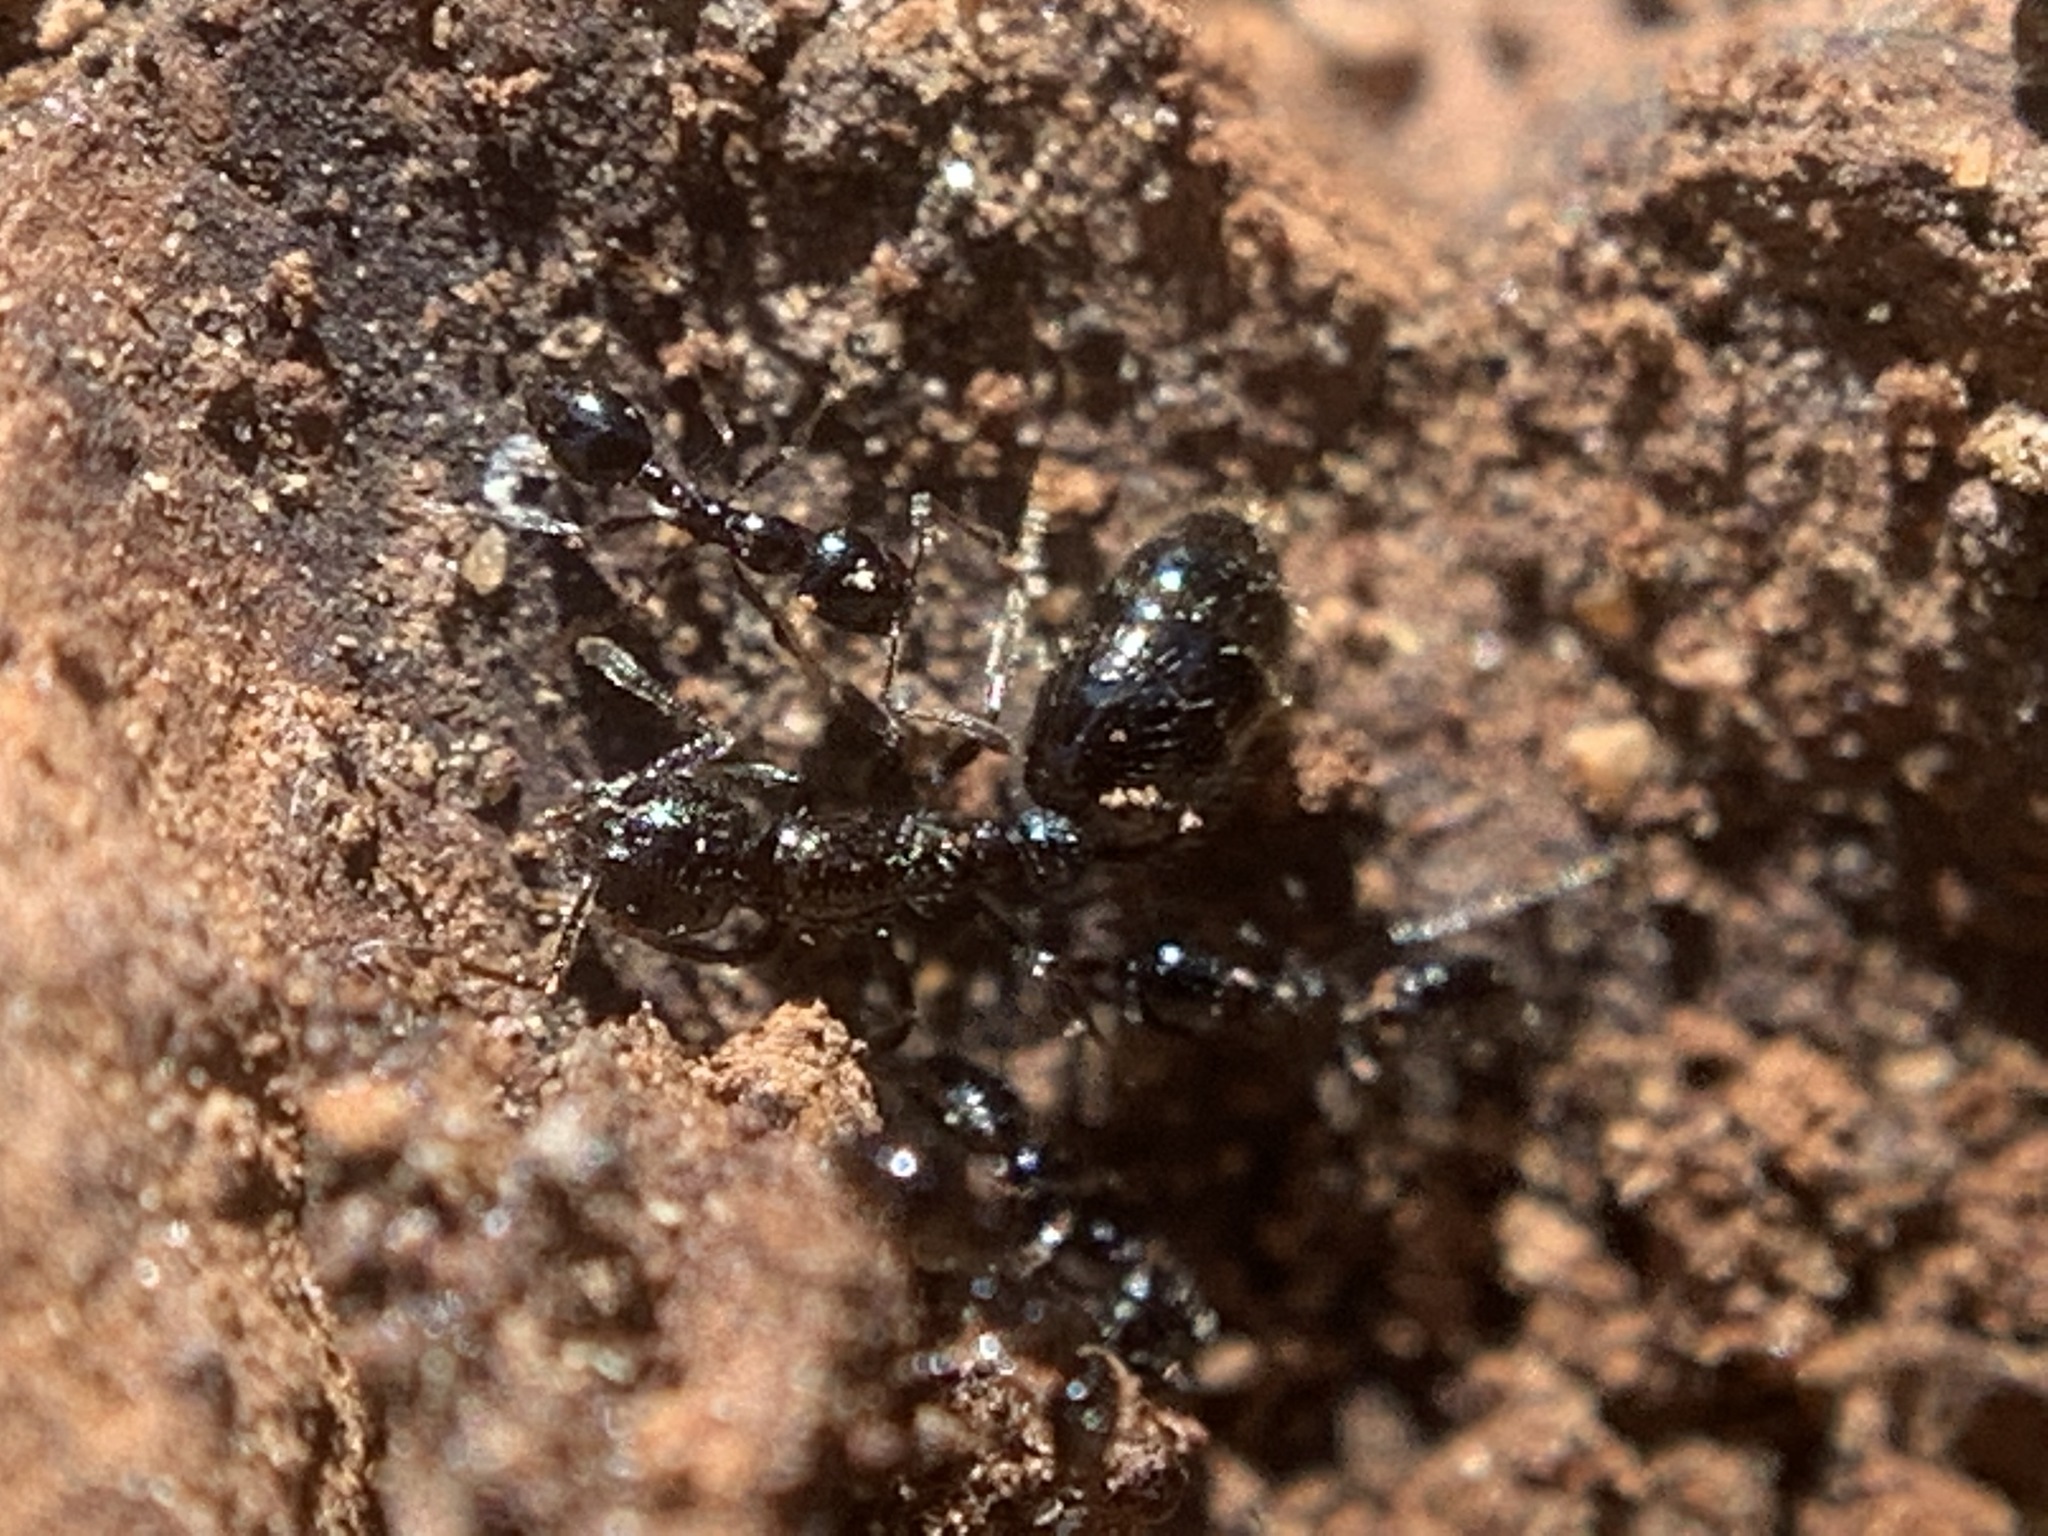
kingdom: Animalia
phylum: Arthropoda
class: Insecta
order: Hymenoptera
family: Formicidae
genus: Monomorium
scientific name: Monomorium ergatogyna
